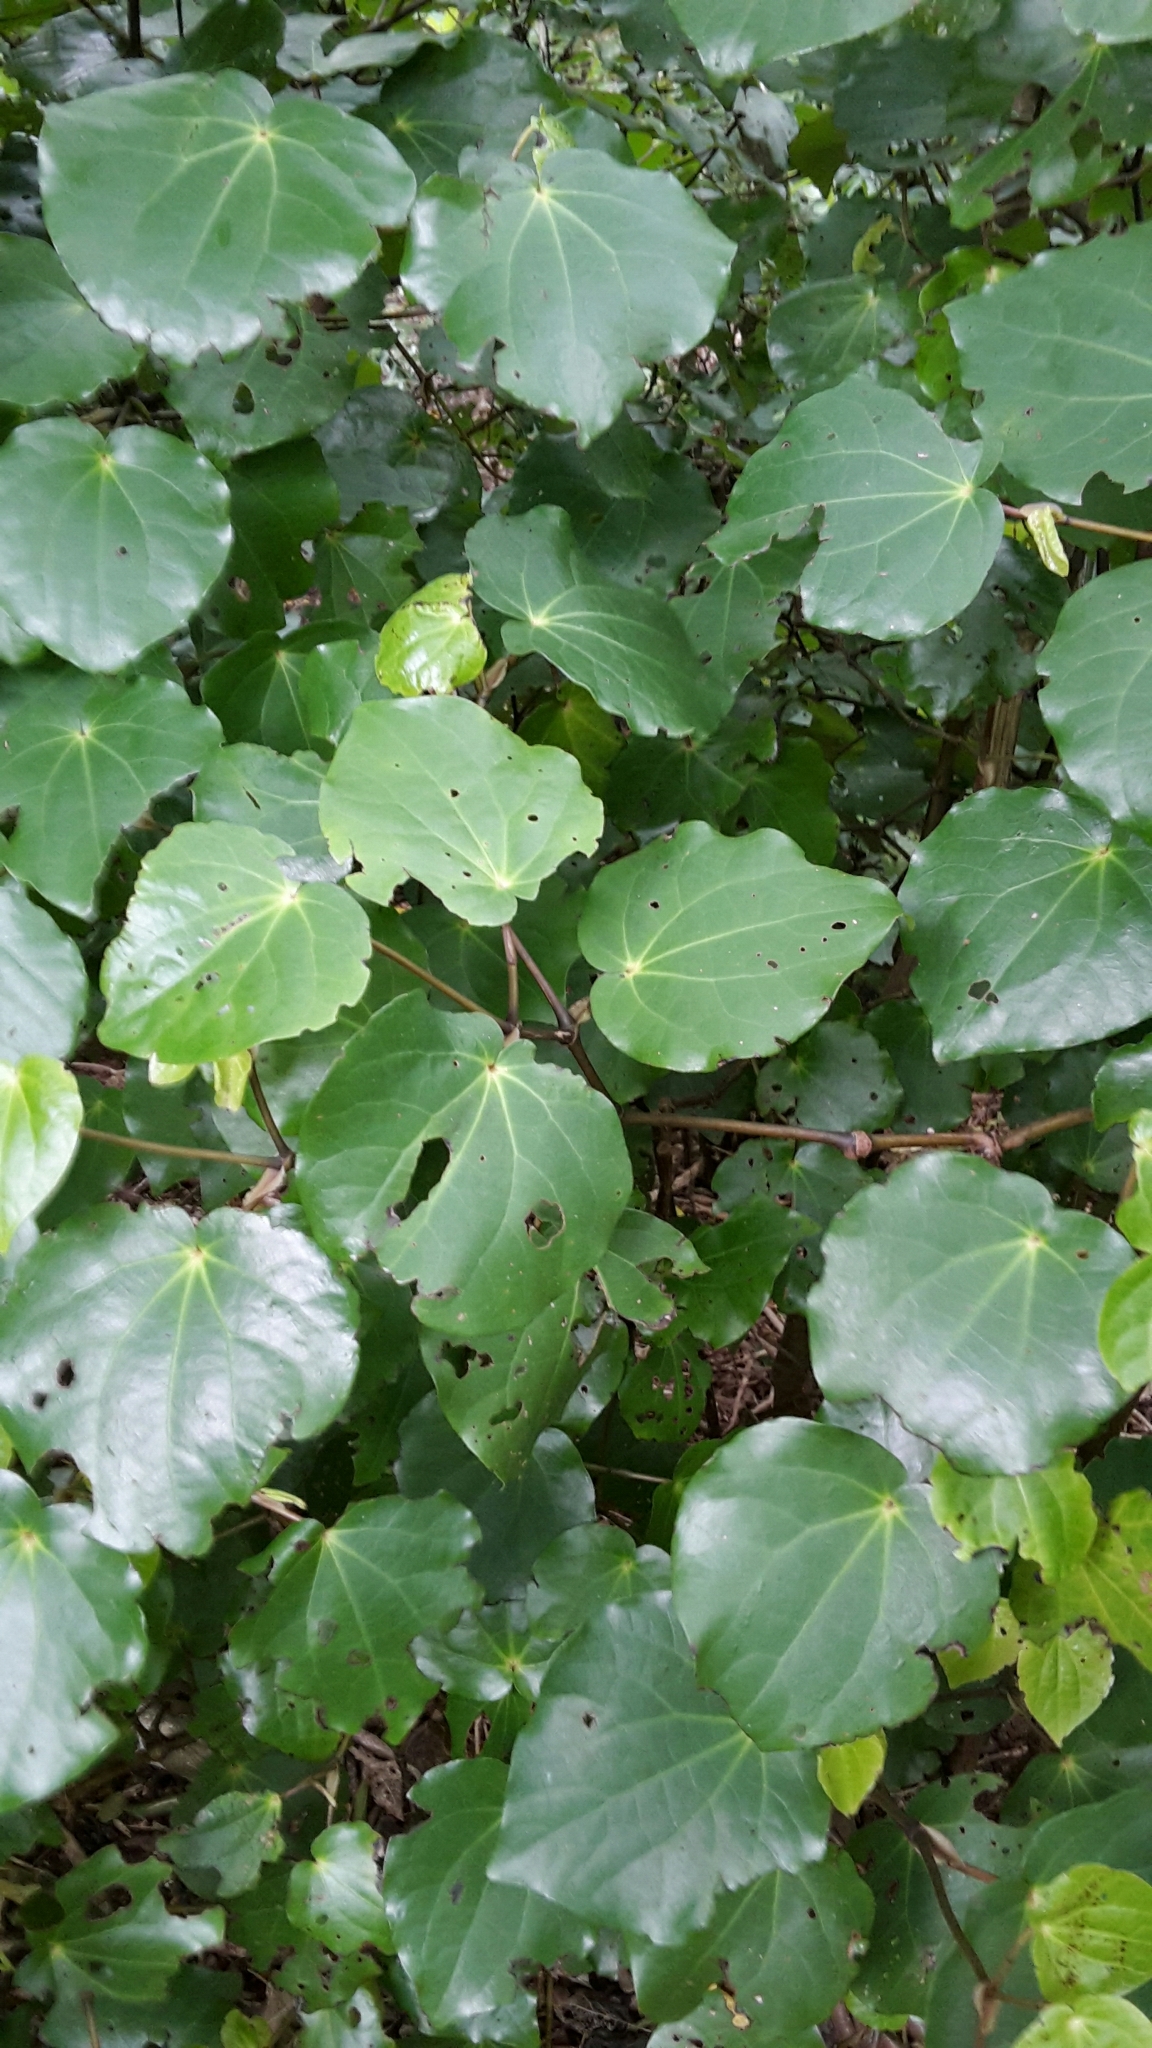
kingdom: Plantae
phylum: Tracheophyta
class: Magnoliopsida
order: Piperales
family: Piperaceae
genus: Macropiper
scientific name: Macropiper excelsum
